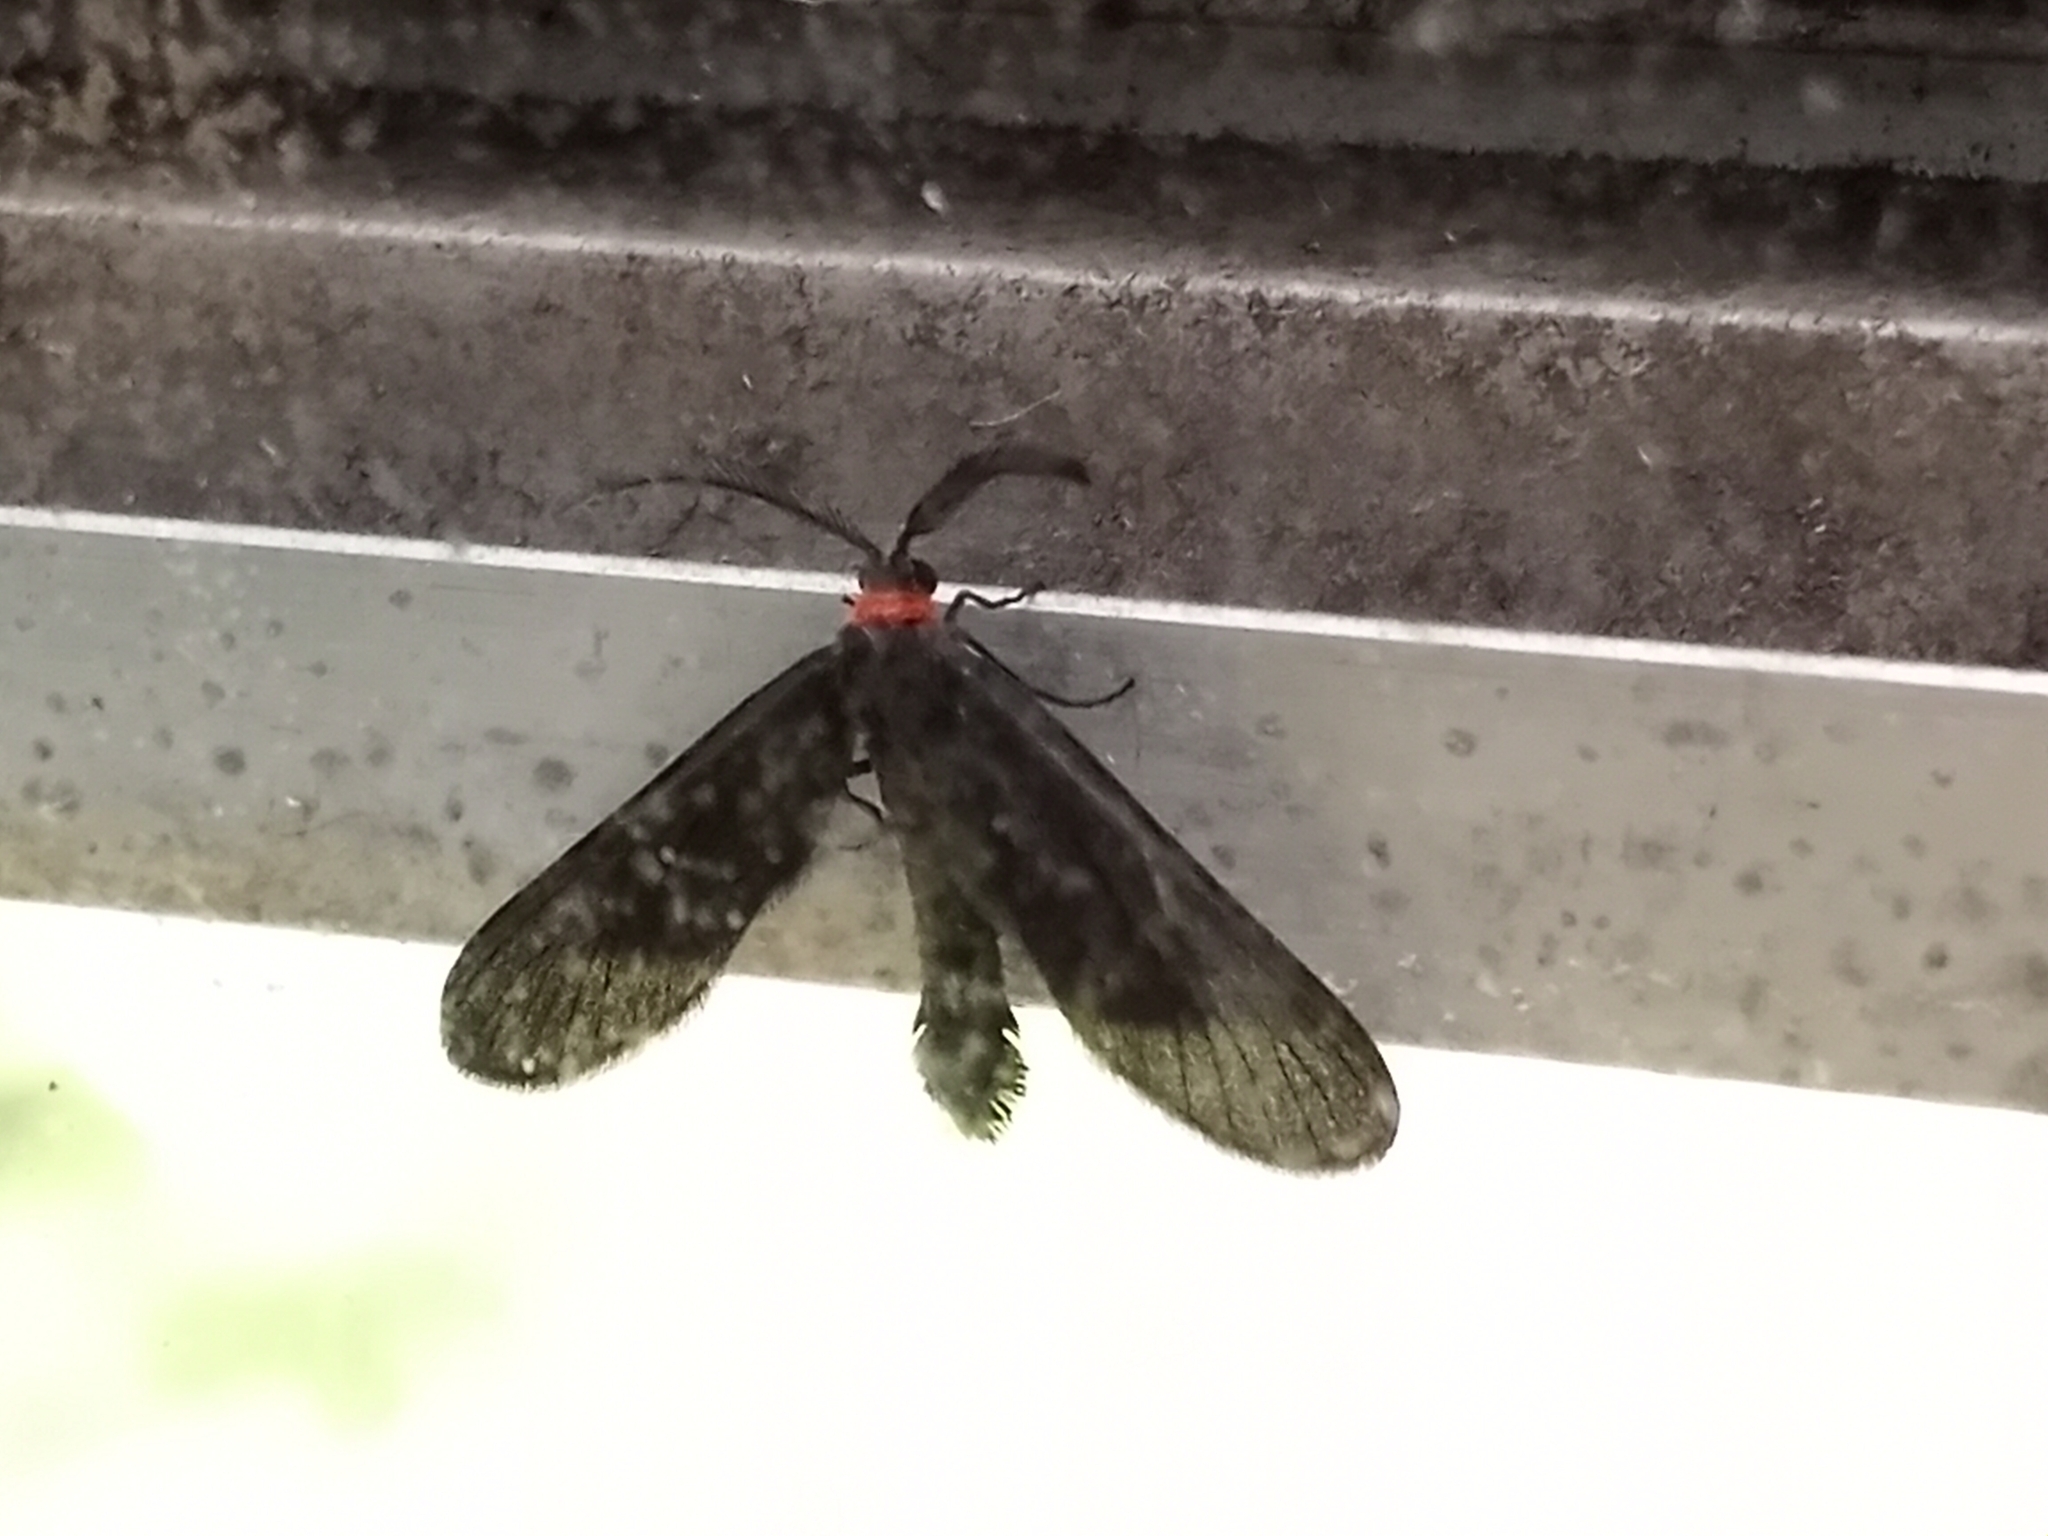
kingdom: Animalia
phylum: Arthropoda
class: Insecta
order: Lepidoptera
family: Zygaenidae
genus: Harrisina
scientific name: Harrisina americana
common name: Grapeleaf skeletonizer moth
